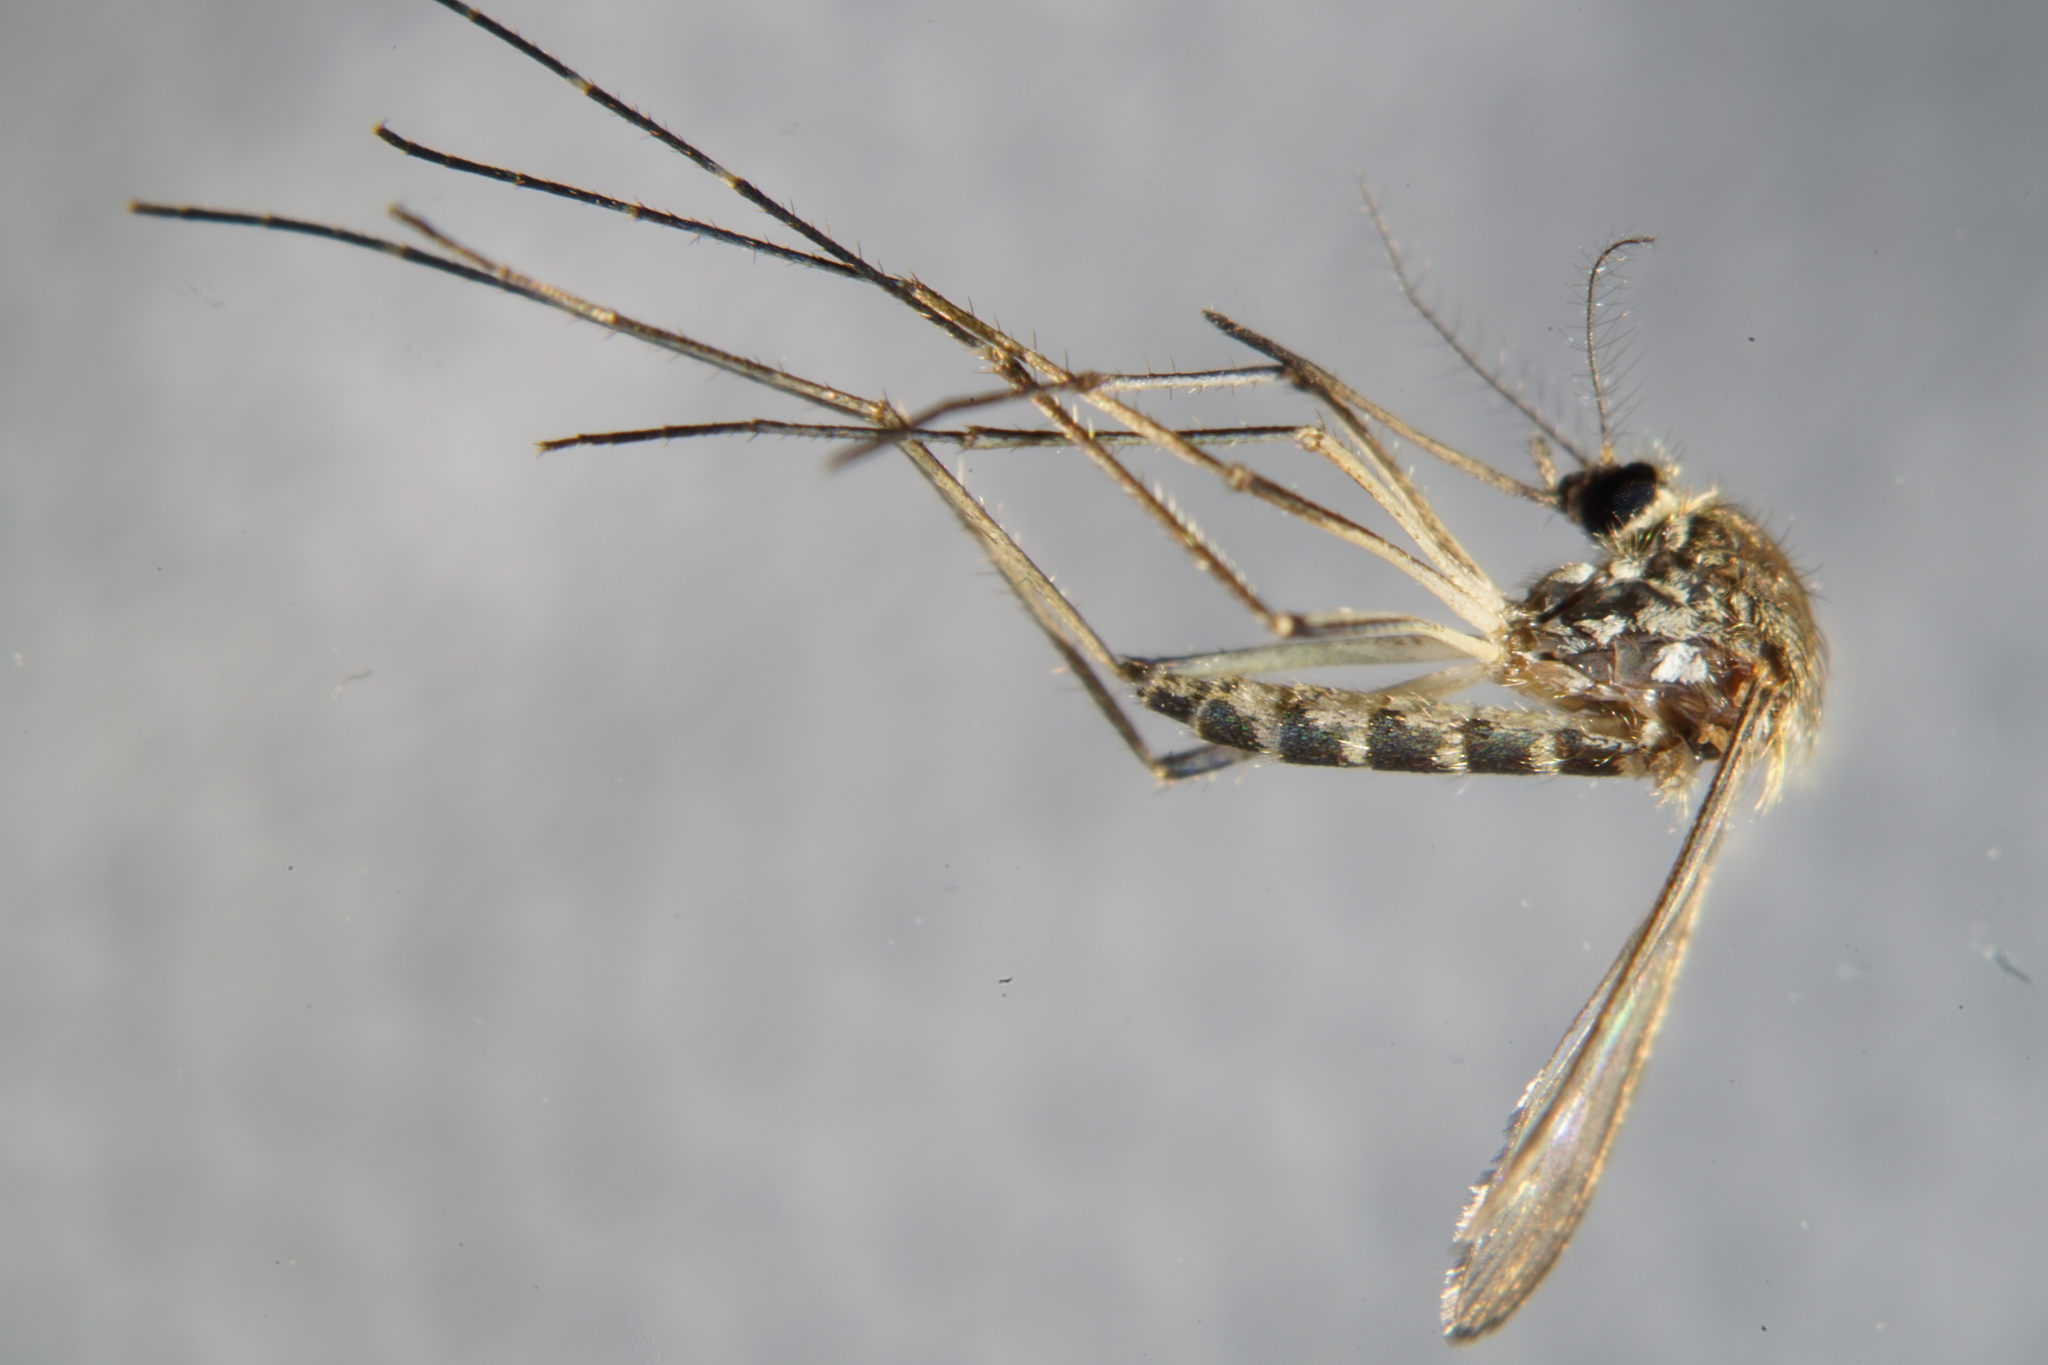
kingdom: Animalia
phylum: Arthropoda
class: Insecta
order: Diptera
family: Culicidae
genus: Aedes
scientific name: Aedes vexans
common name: Inland floodwater mosquito
